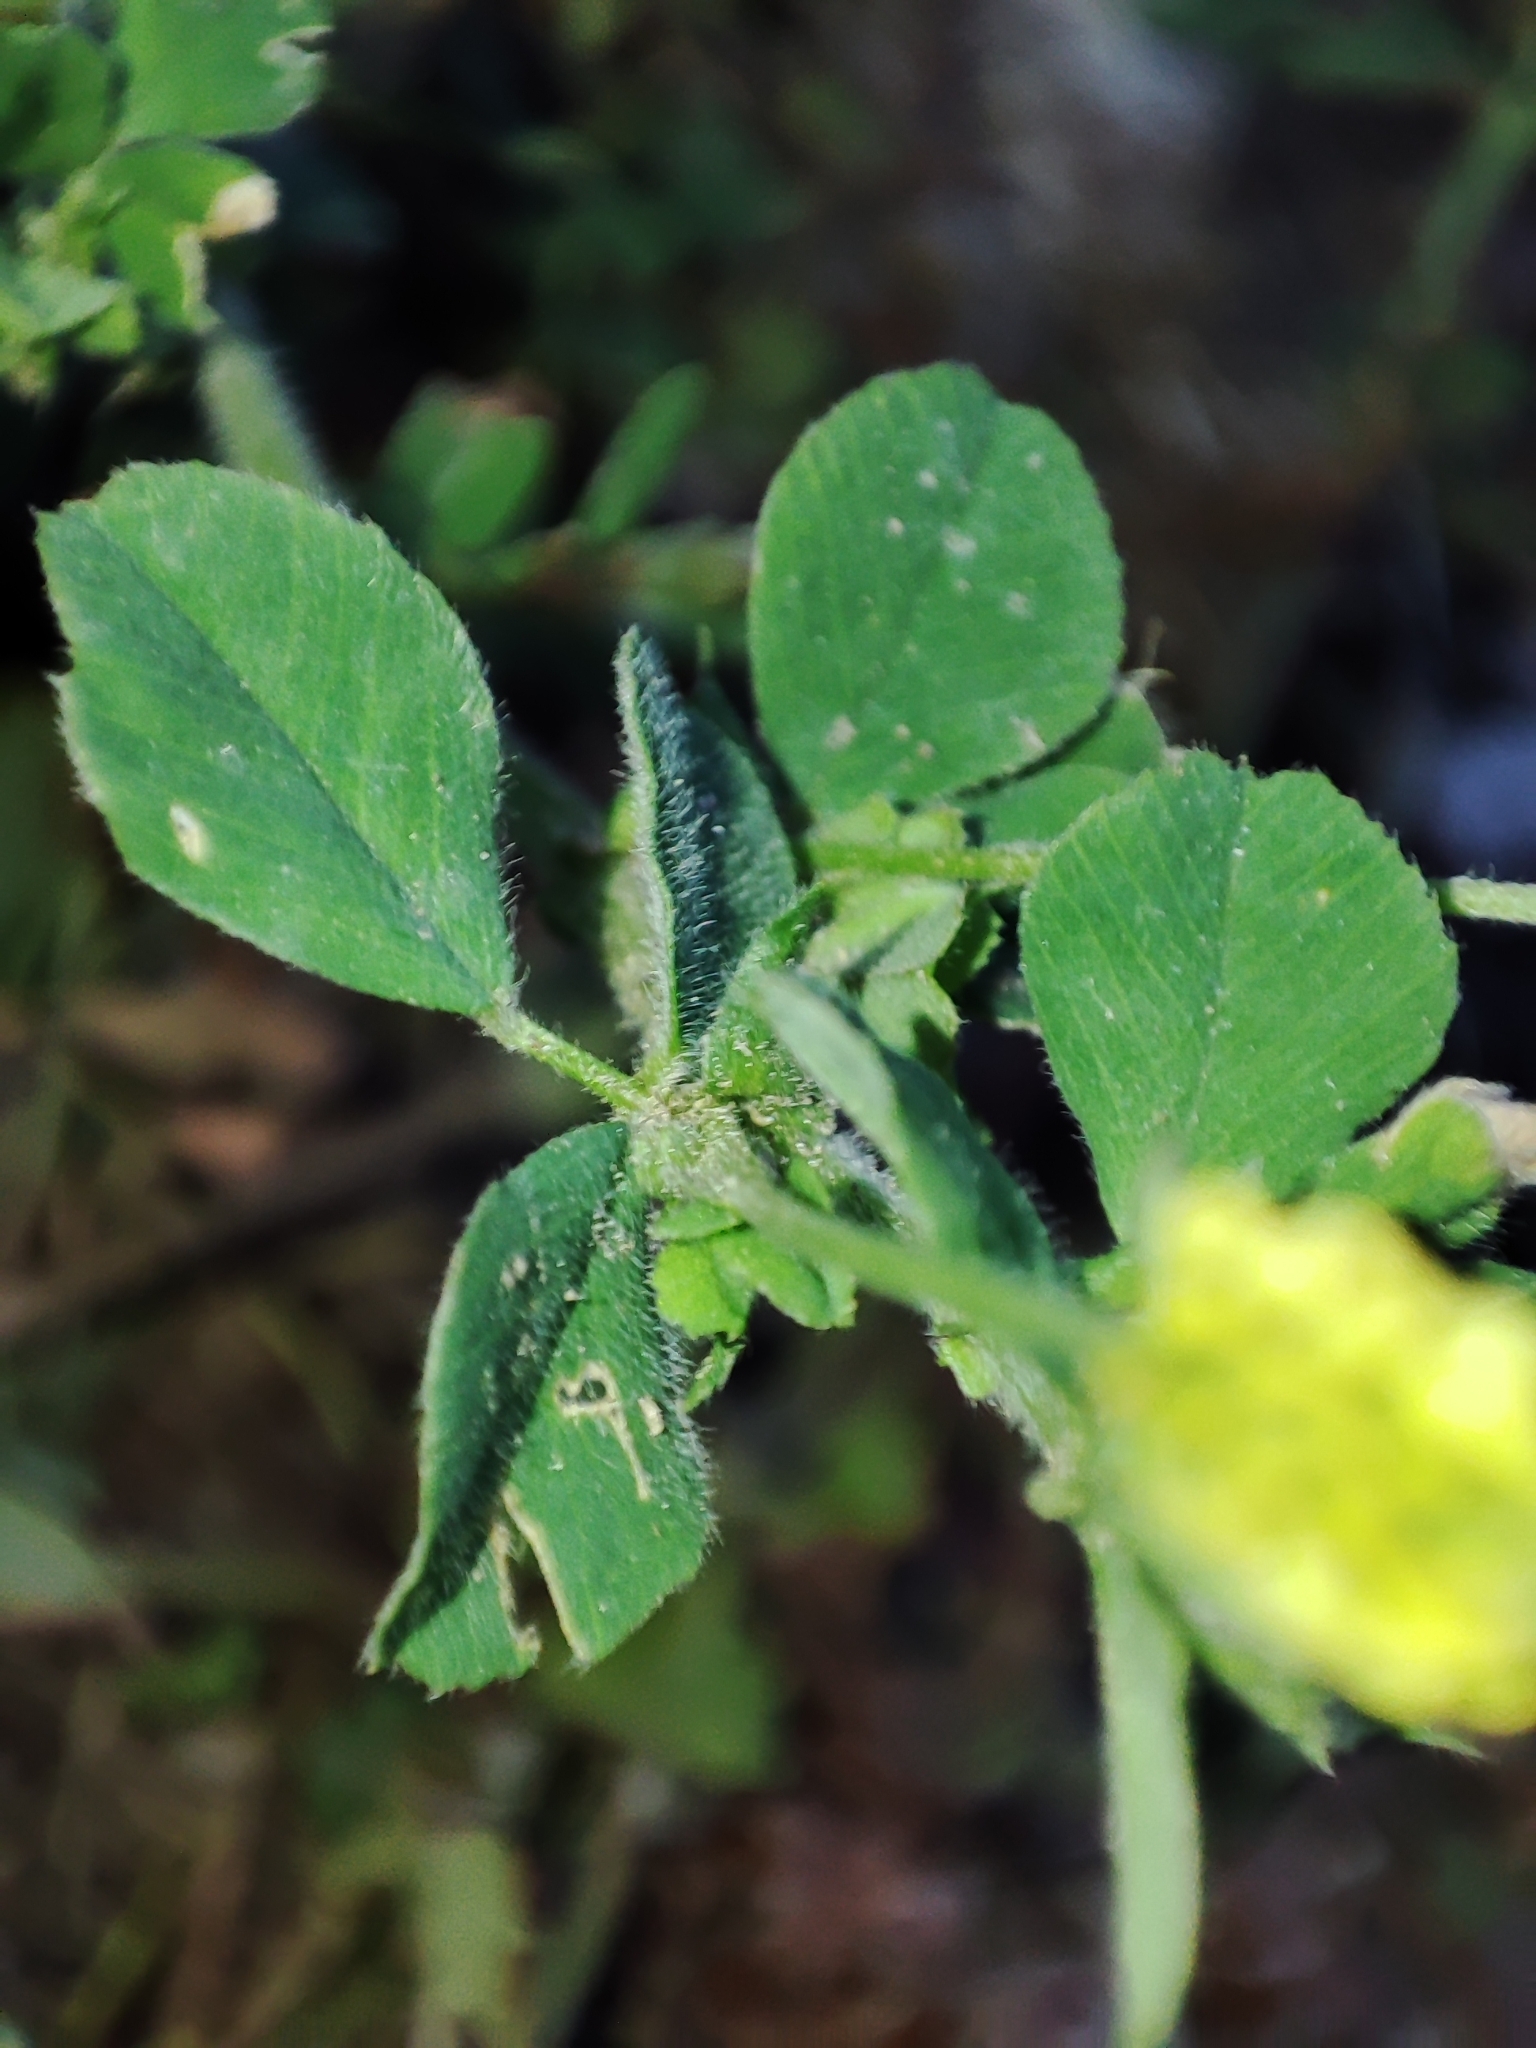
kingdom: Plantae
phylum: Tracheophyta
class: Magnoliopsida
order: Fabales
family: Fabaceae
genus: Medicago
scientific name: Medicago lupulina
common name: Black medick
